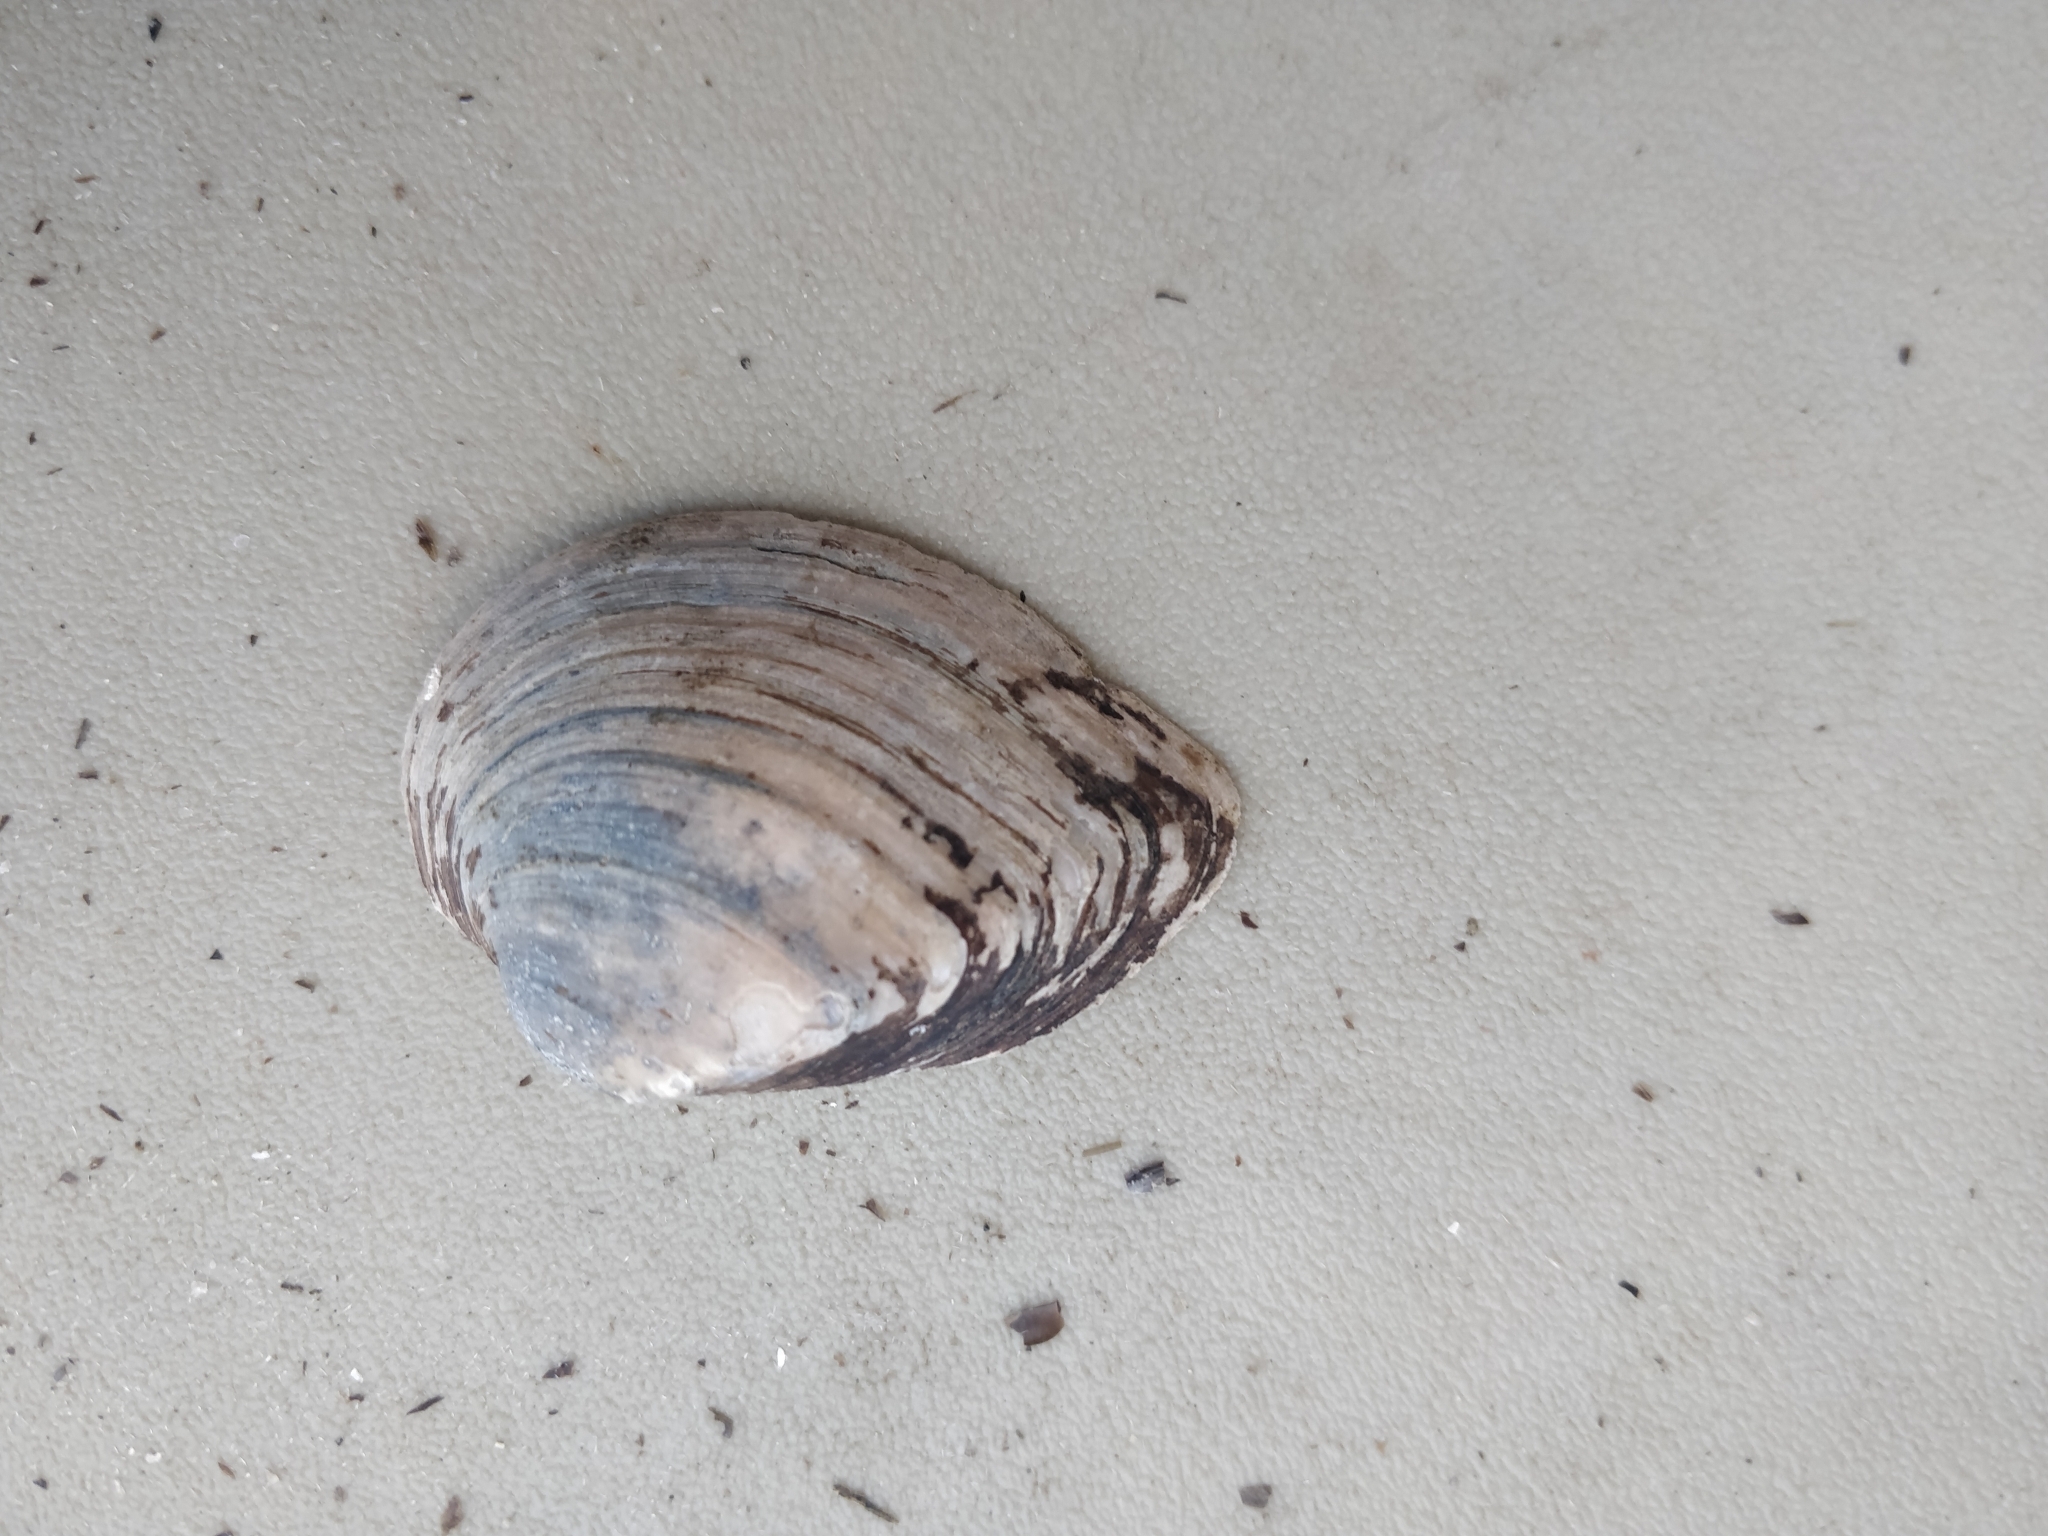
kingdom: Animalia
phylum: Mollusca
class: Bivalvia
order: Unionida
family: Unionidae
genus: Truncilla
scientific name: Truncilla truncata
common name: Deertoe
